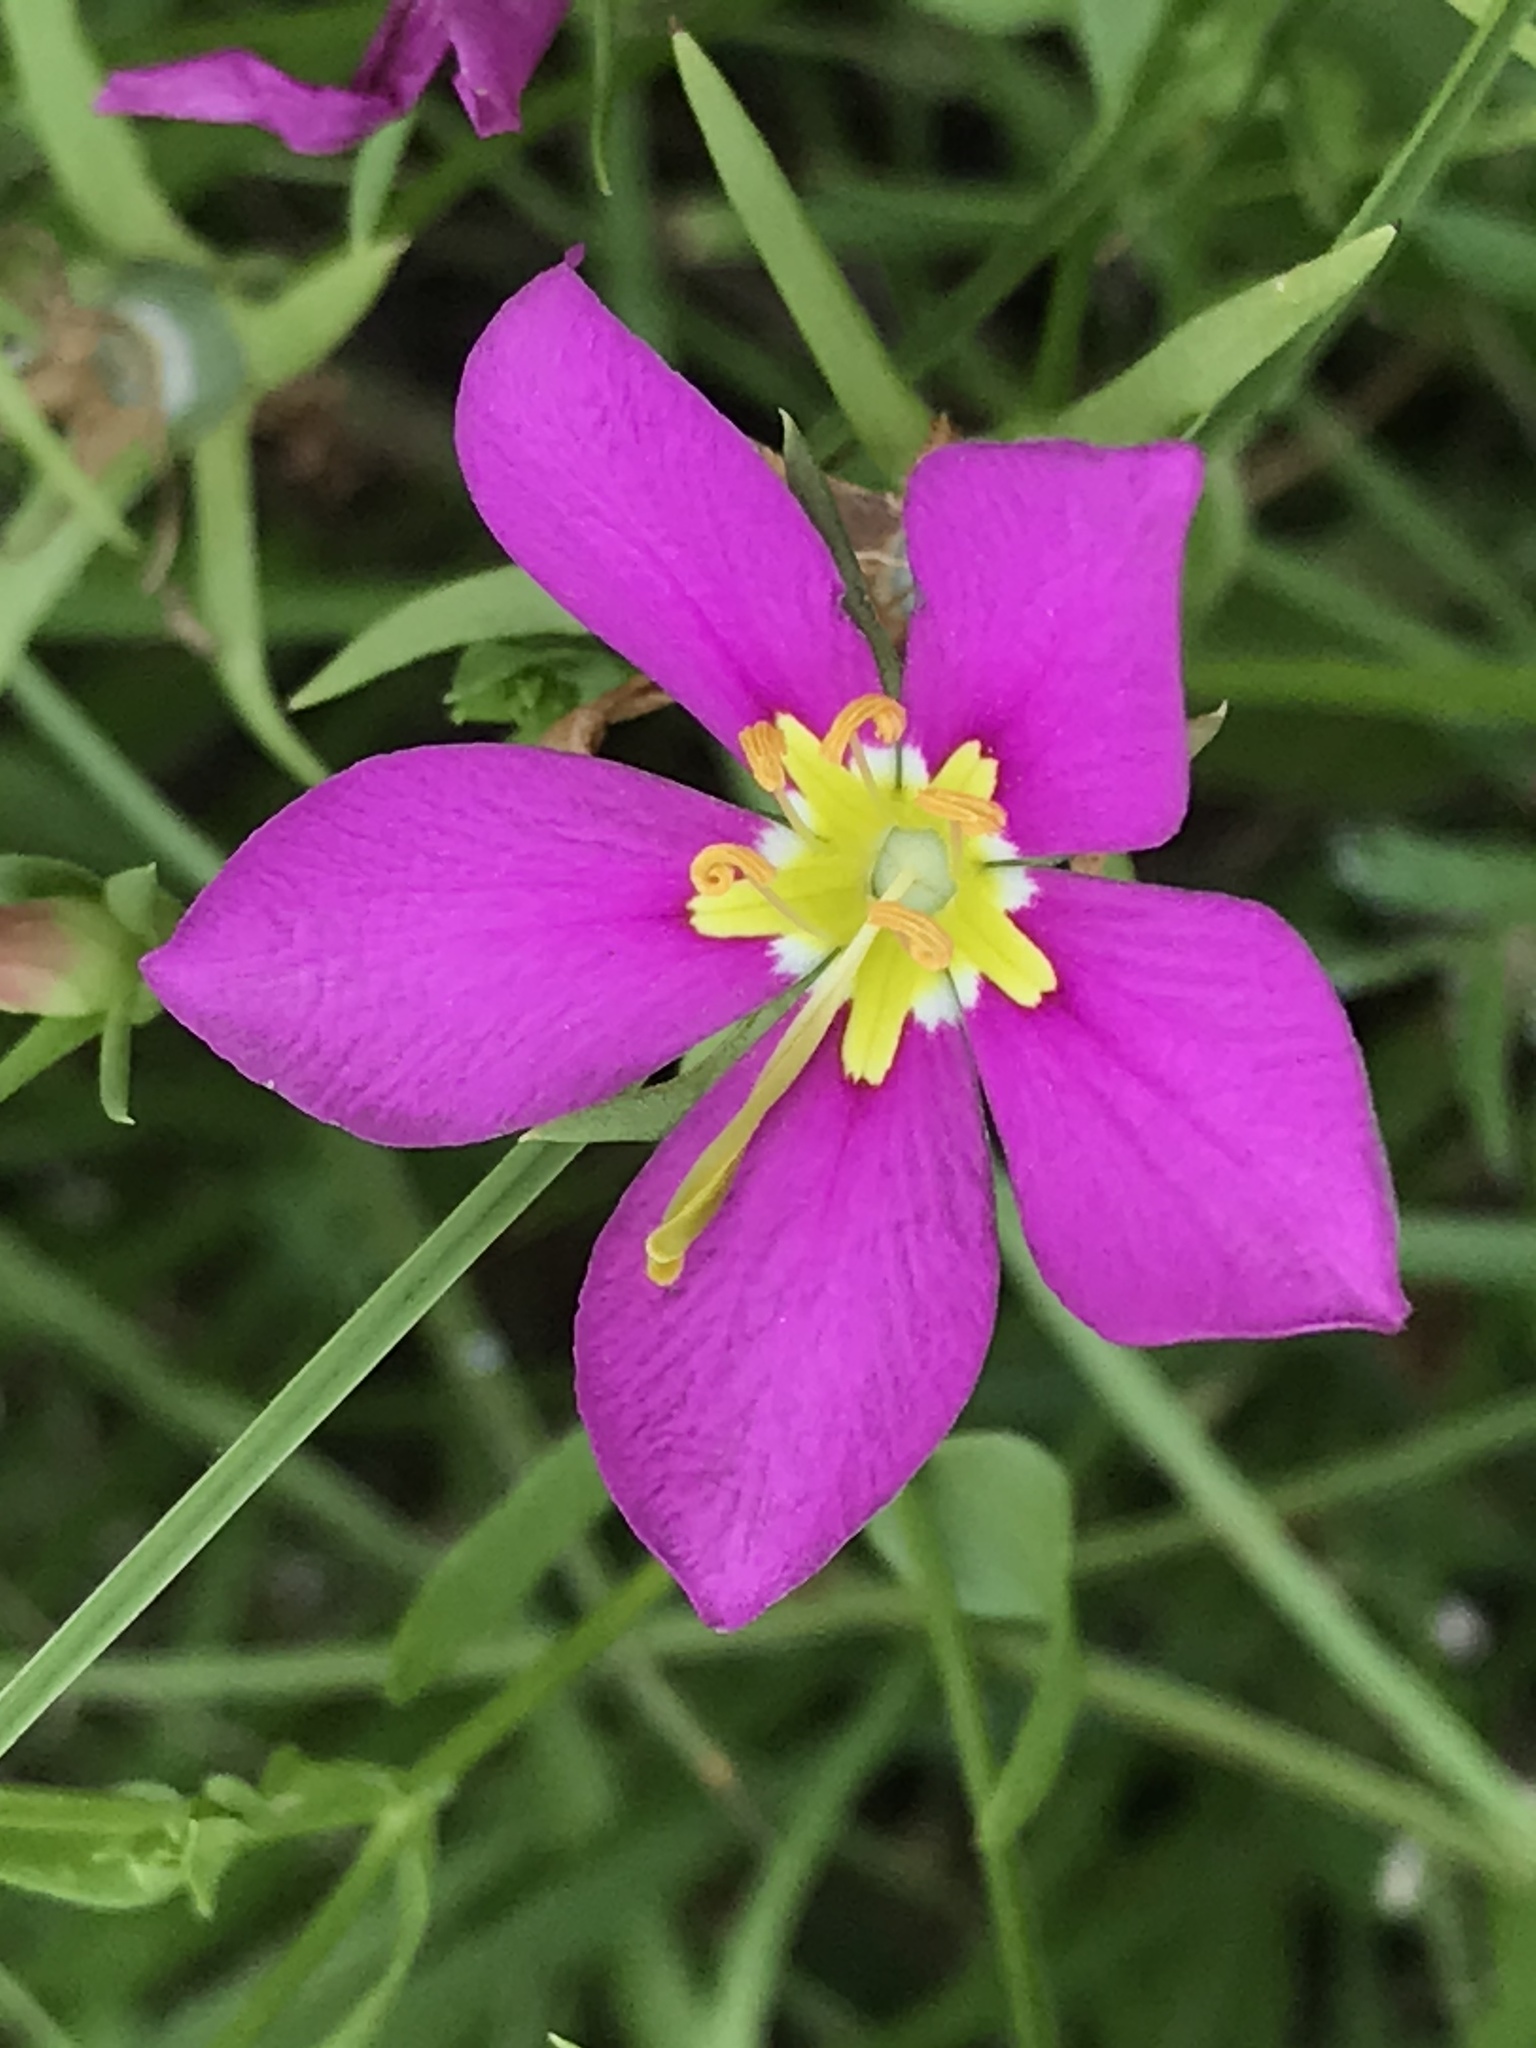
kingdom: Plantae
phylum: Tracheophyta
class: Magnoliopsida
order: Gentianales
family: Gentianaceae
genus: Sabatia
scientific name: Sabatia campestris
